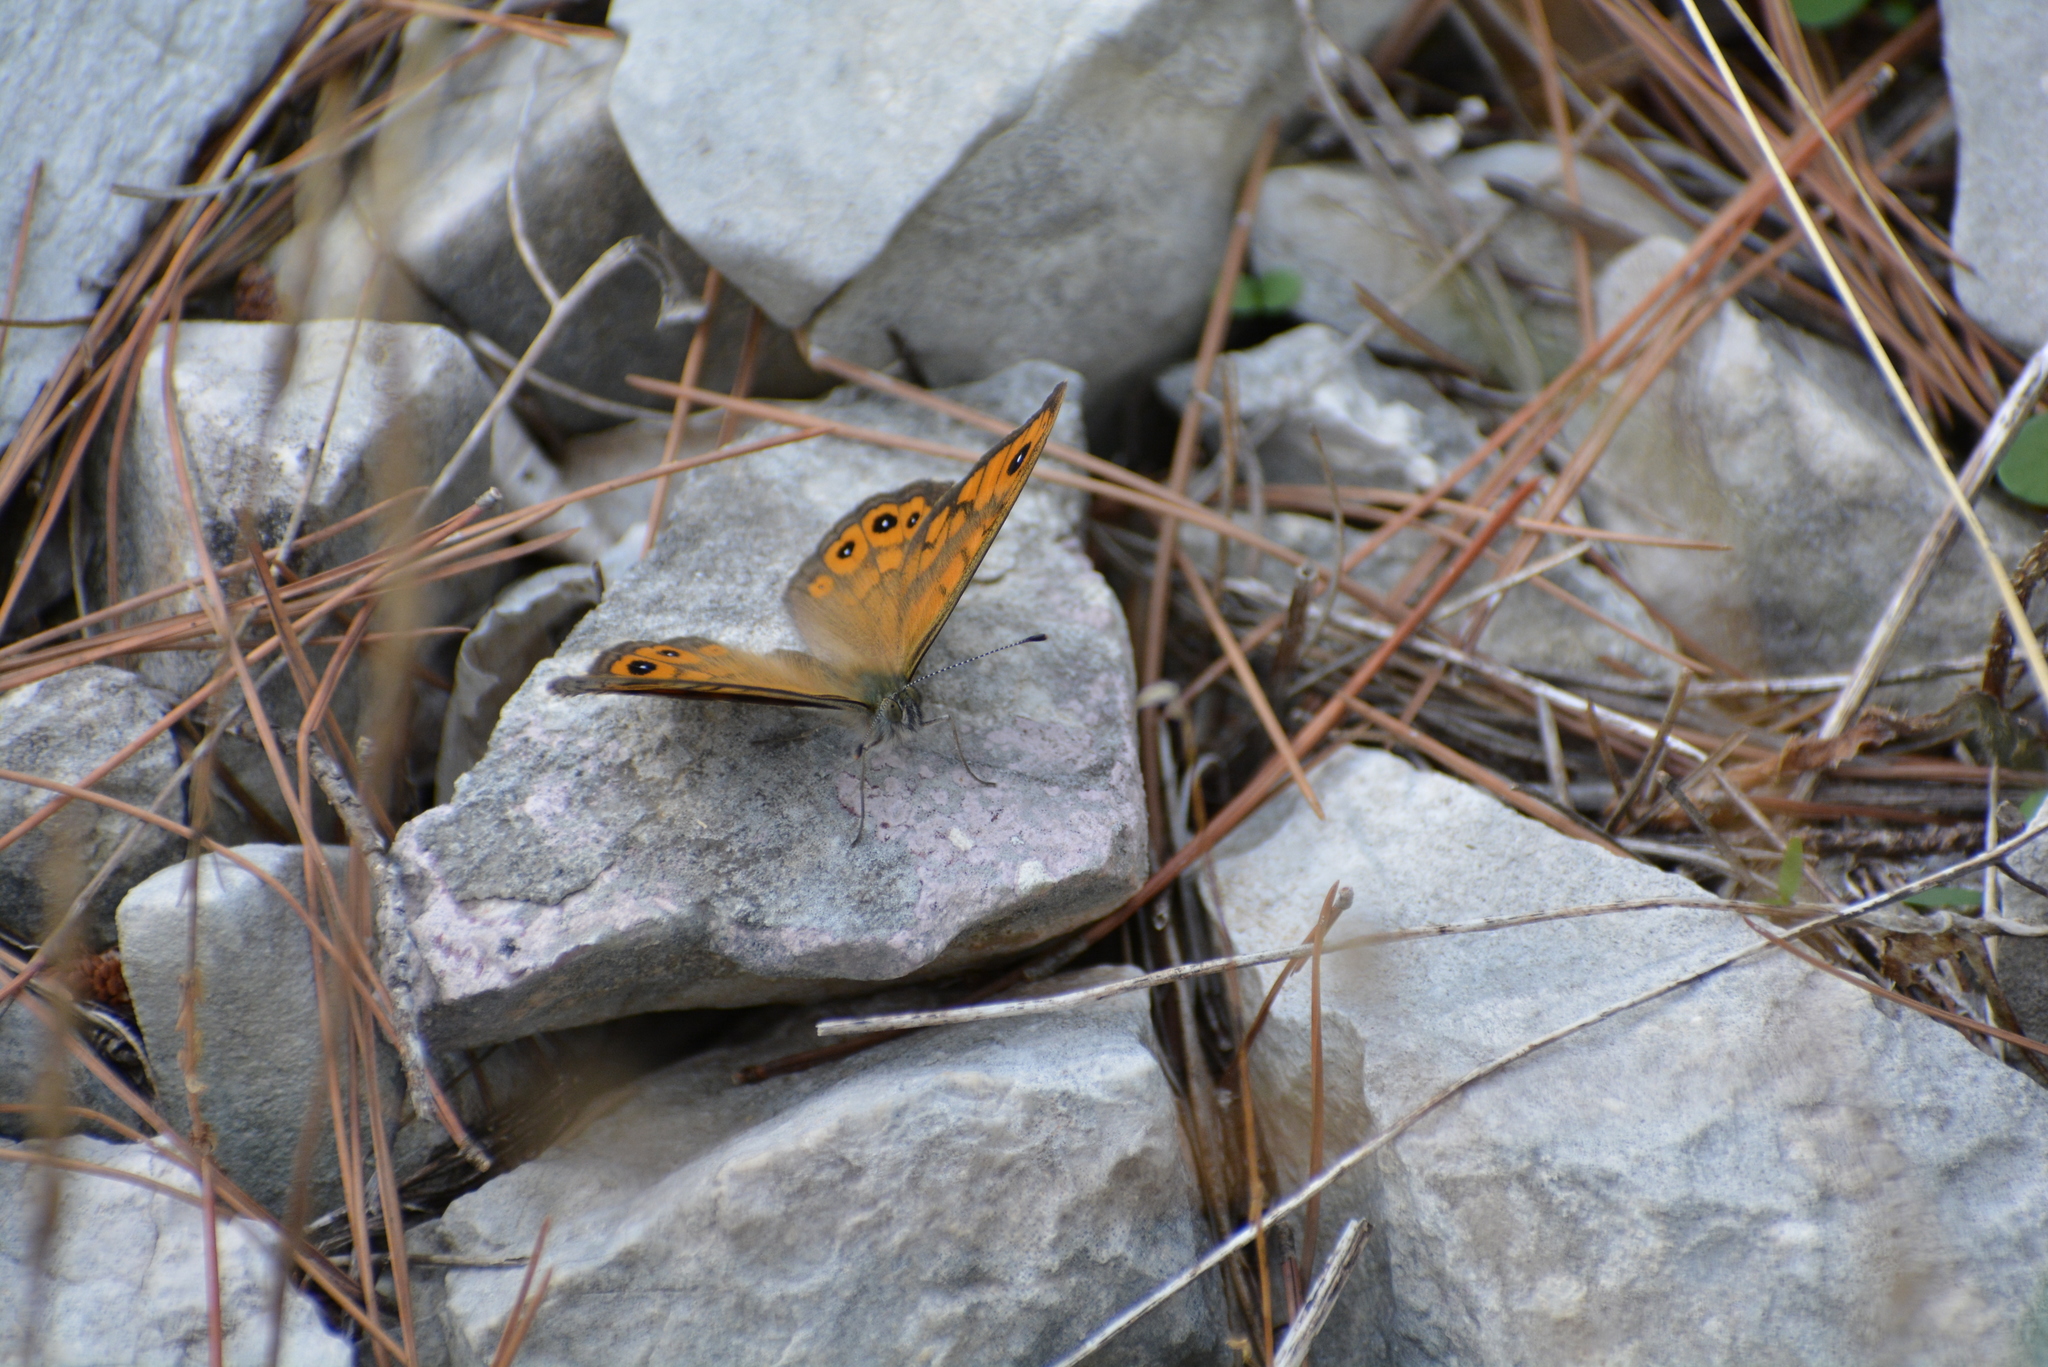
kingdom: Animalia
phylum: Arthropoda
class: Insecta
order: Lepidoptera
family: Nymphalidae
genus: Pararge
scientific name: Pararge Lasiommata megera
